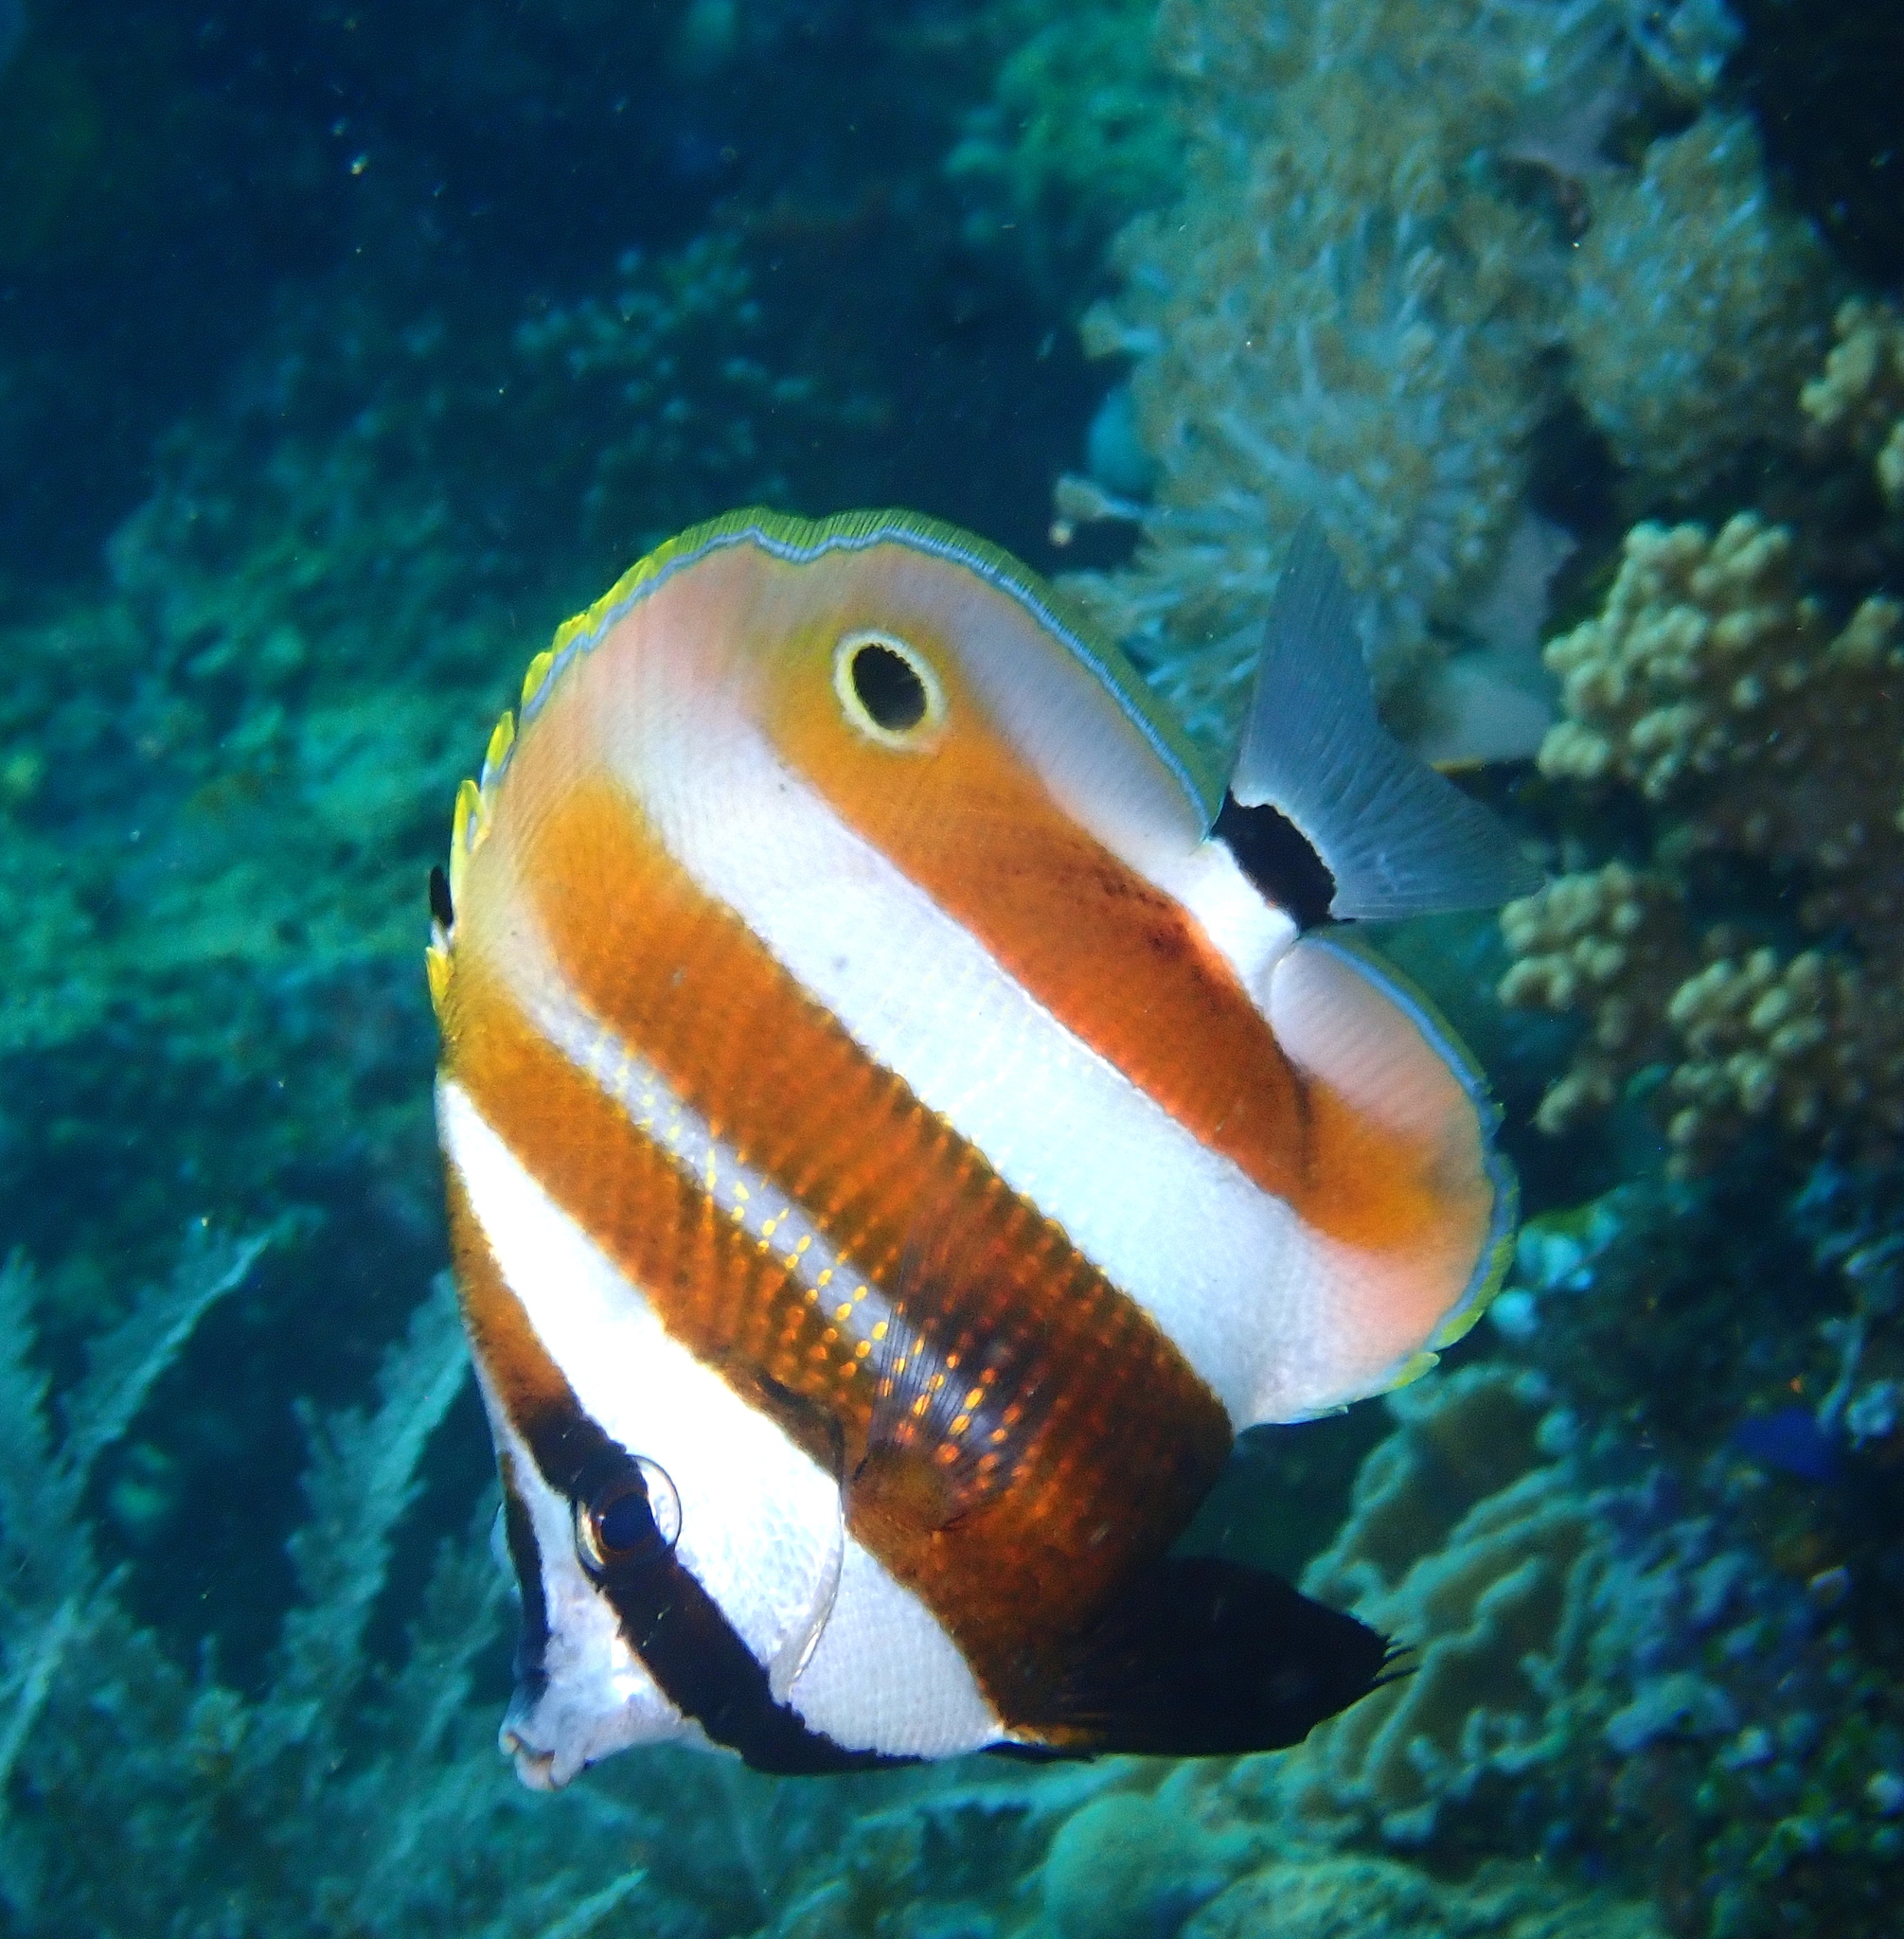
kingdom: Animalia
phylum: Chordata
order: Perciformes
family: Chaetodontidae
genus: Coradion
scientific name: Coradion chrysozonus
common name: Orange-banded coralfish
